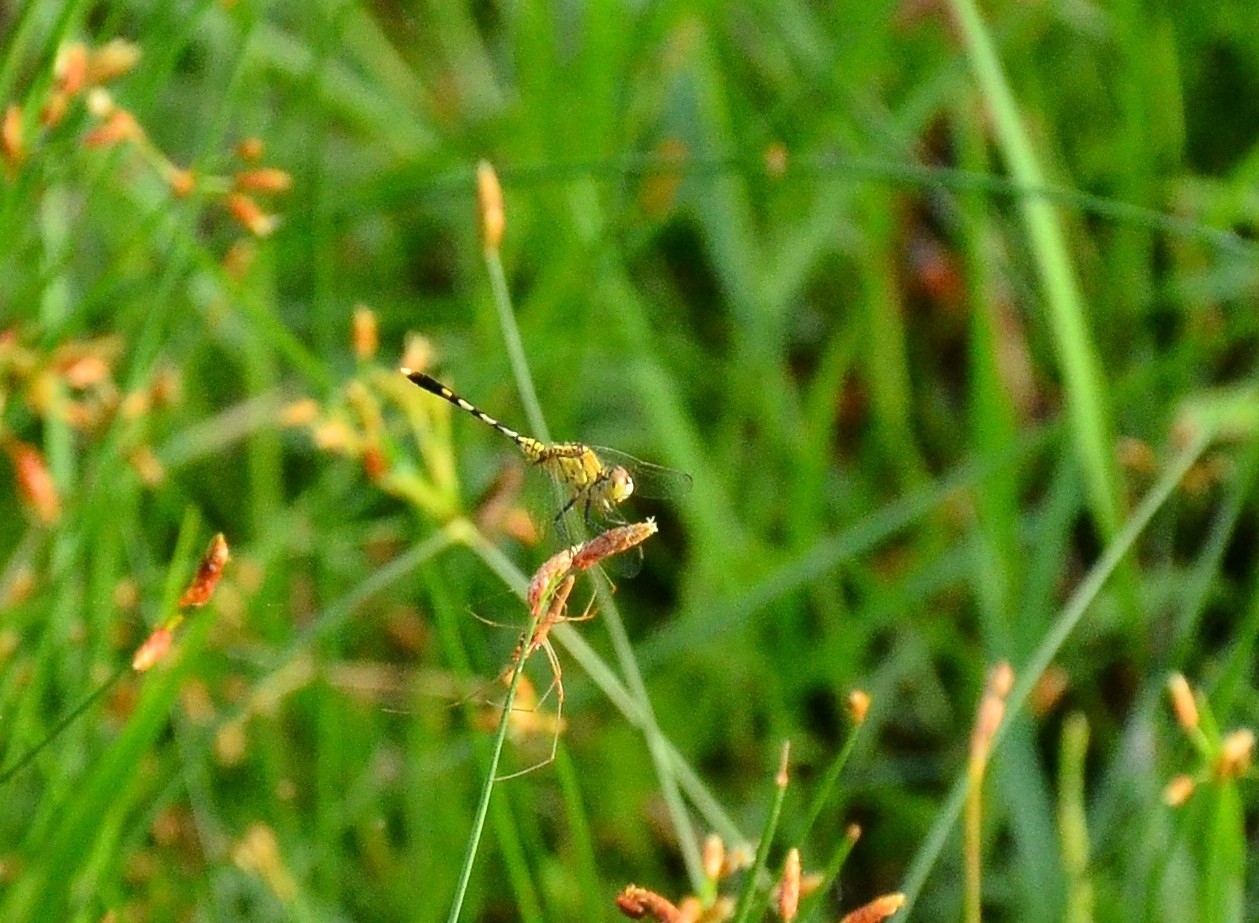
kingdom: Animalia
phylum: Arthropoda
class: Insecta
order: Odonata
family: Libellulidae
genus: Diplacodes
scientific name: Diplacodes trivialis
